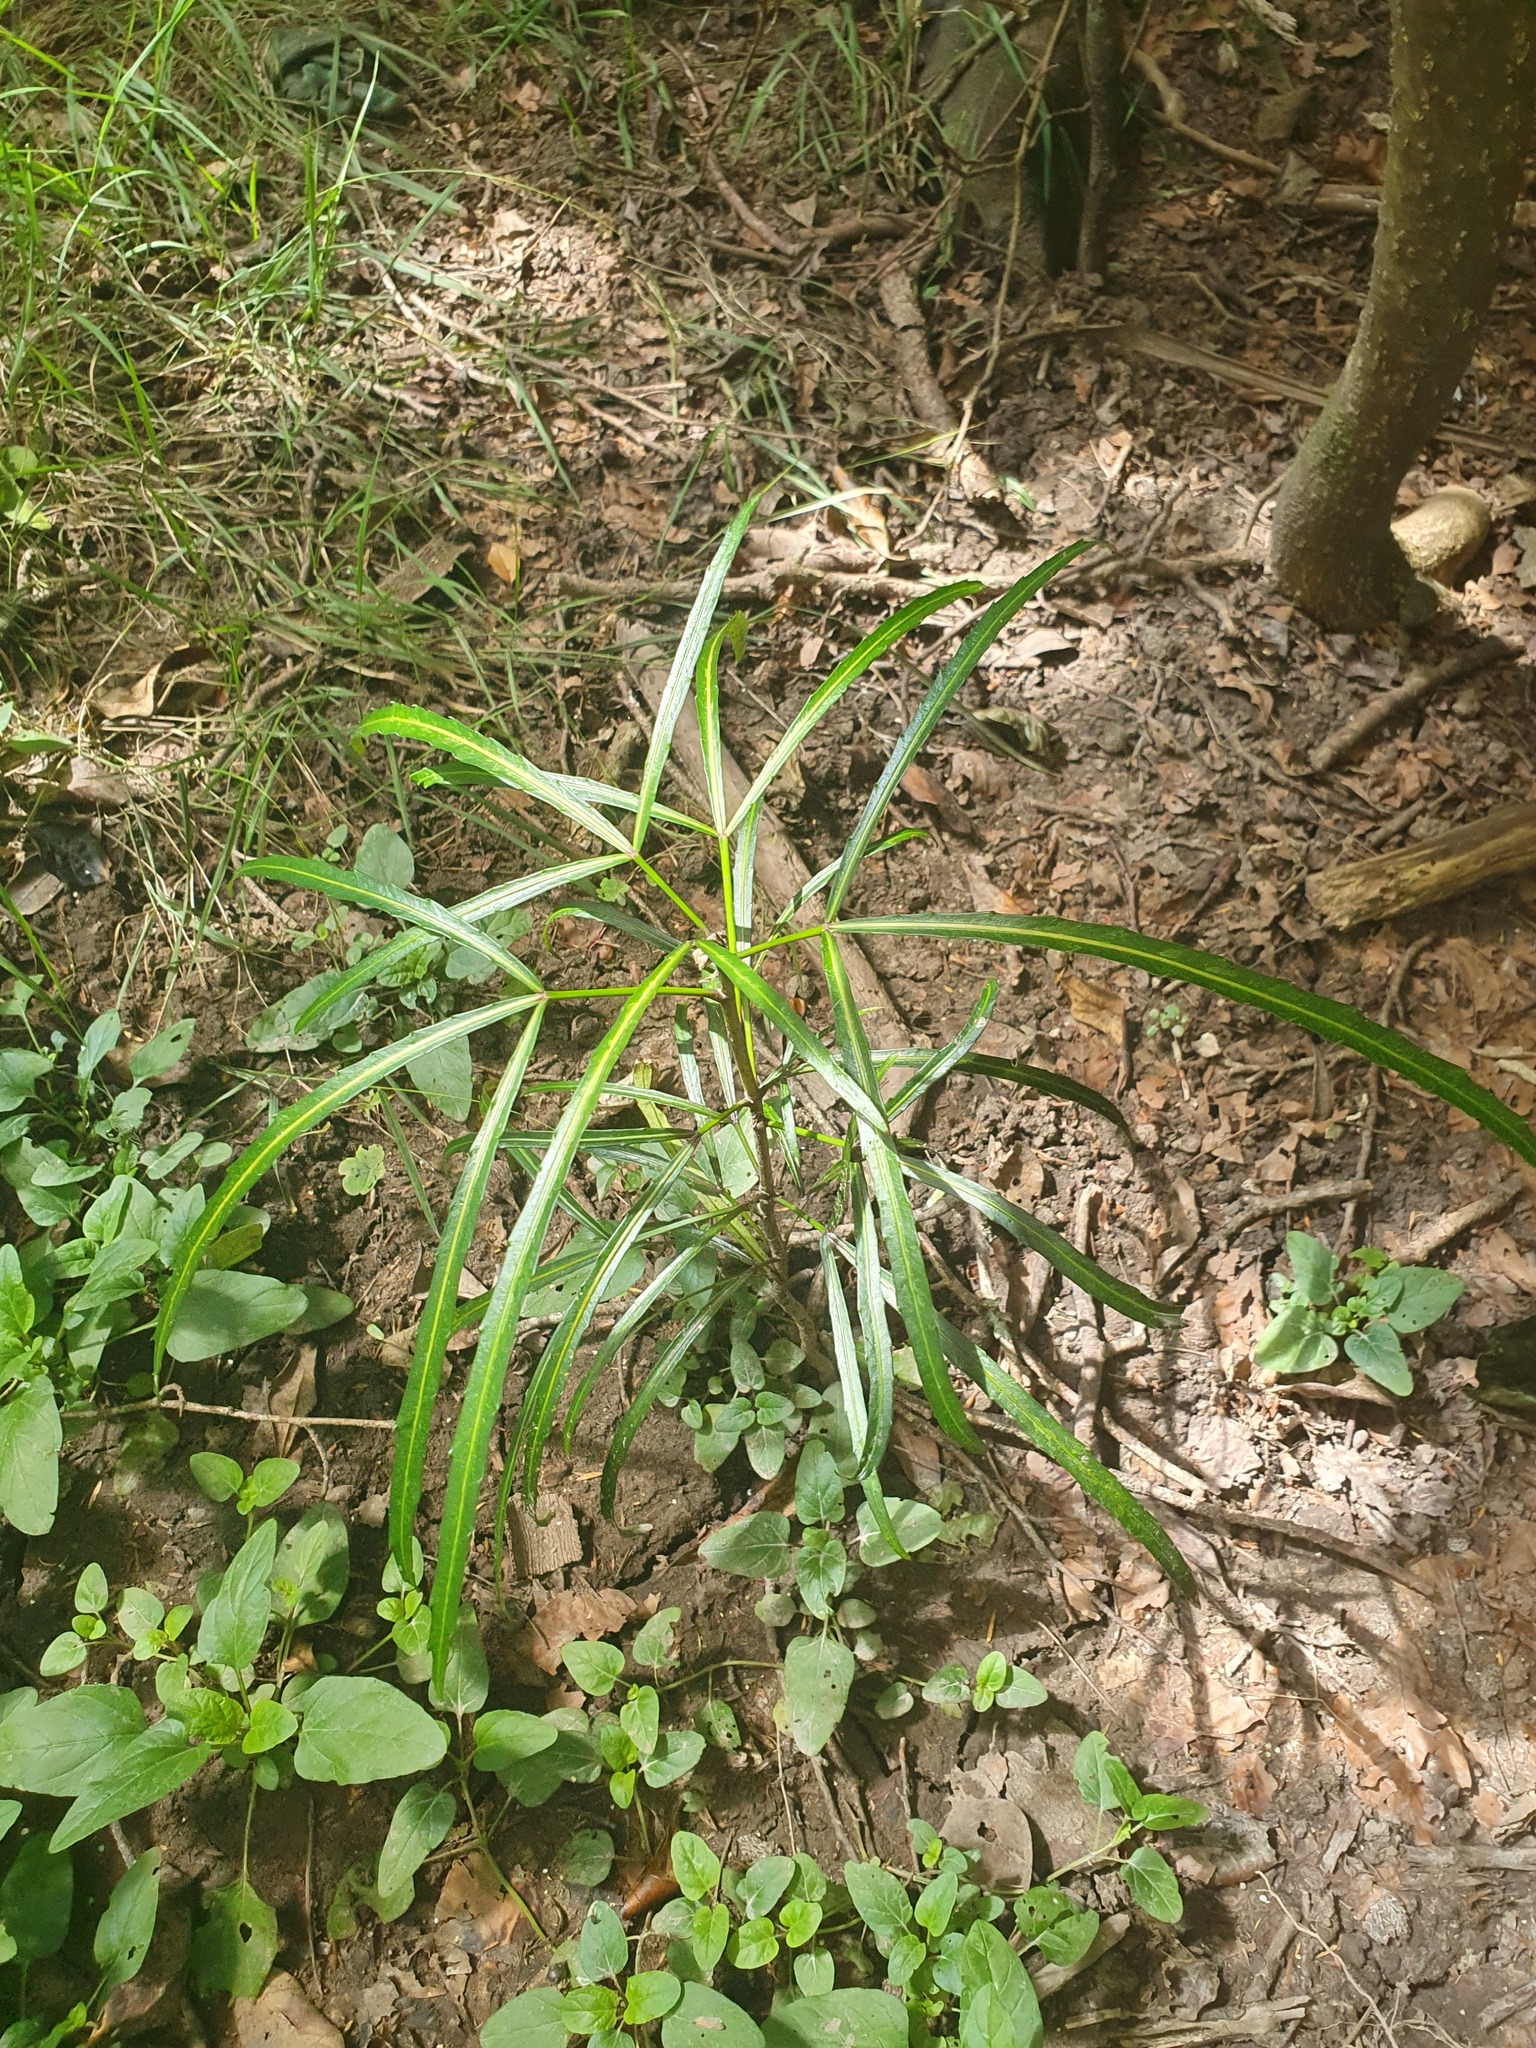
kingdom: Plantae
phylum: Tracheophyta
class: Magnoliopsida
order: Apiales
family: Araliaceae
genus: Pseudopanax
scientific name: Pseudopanax
